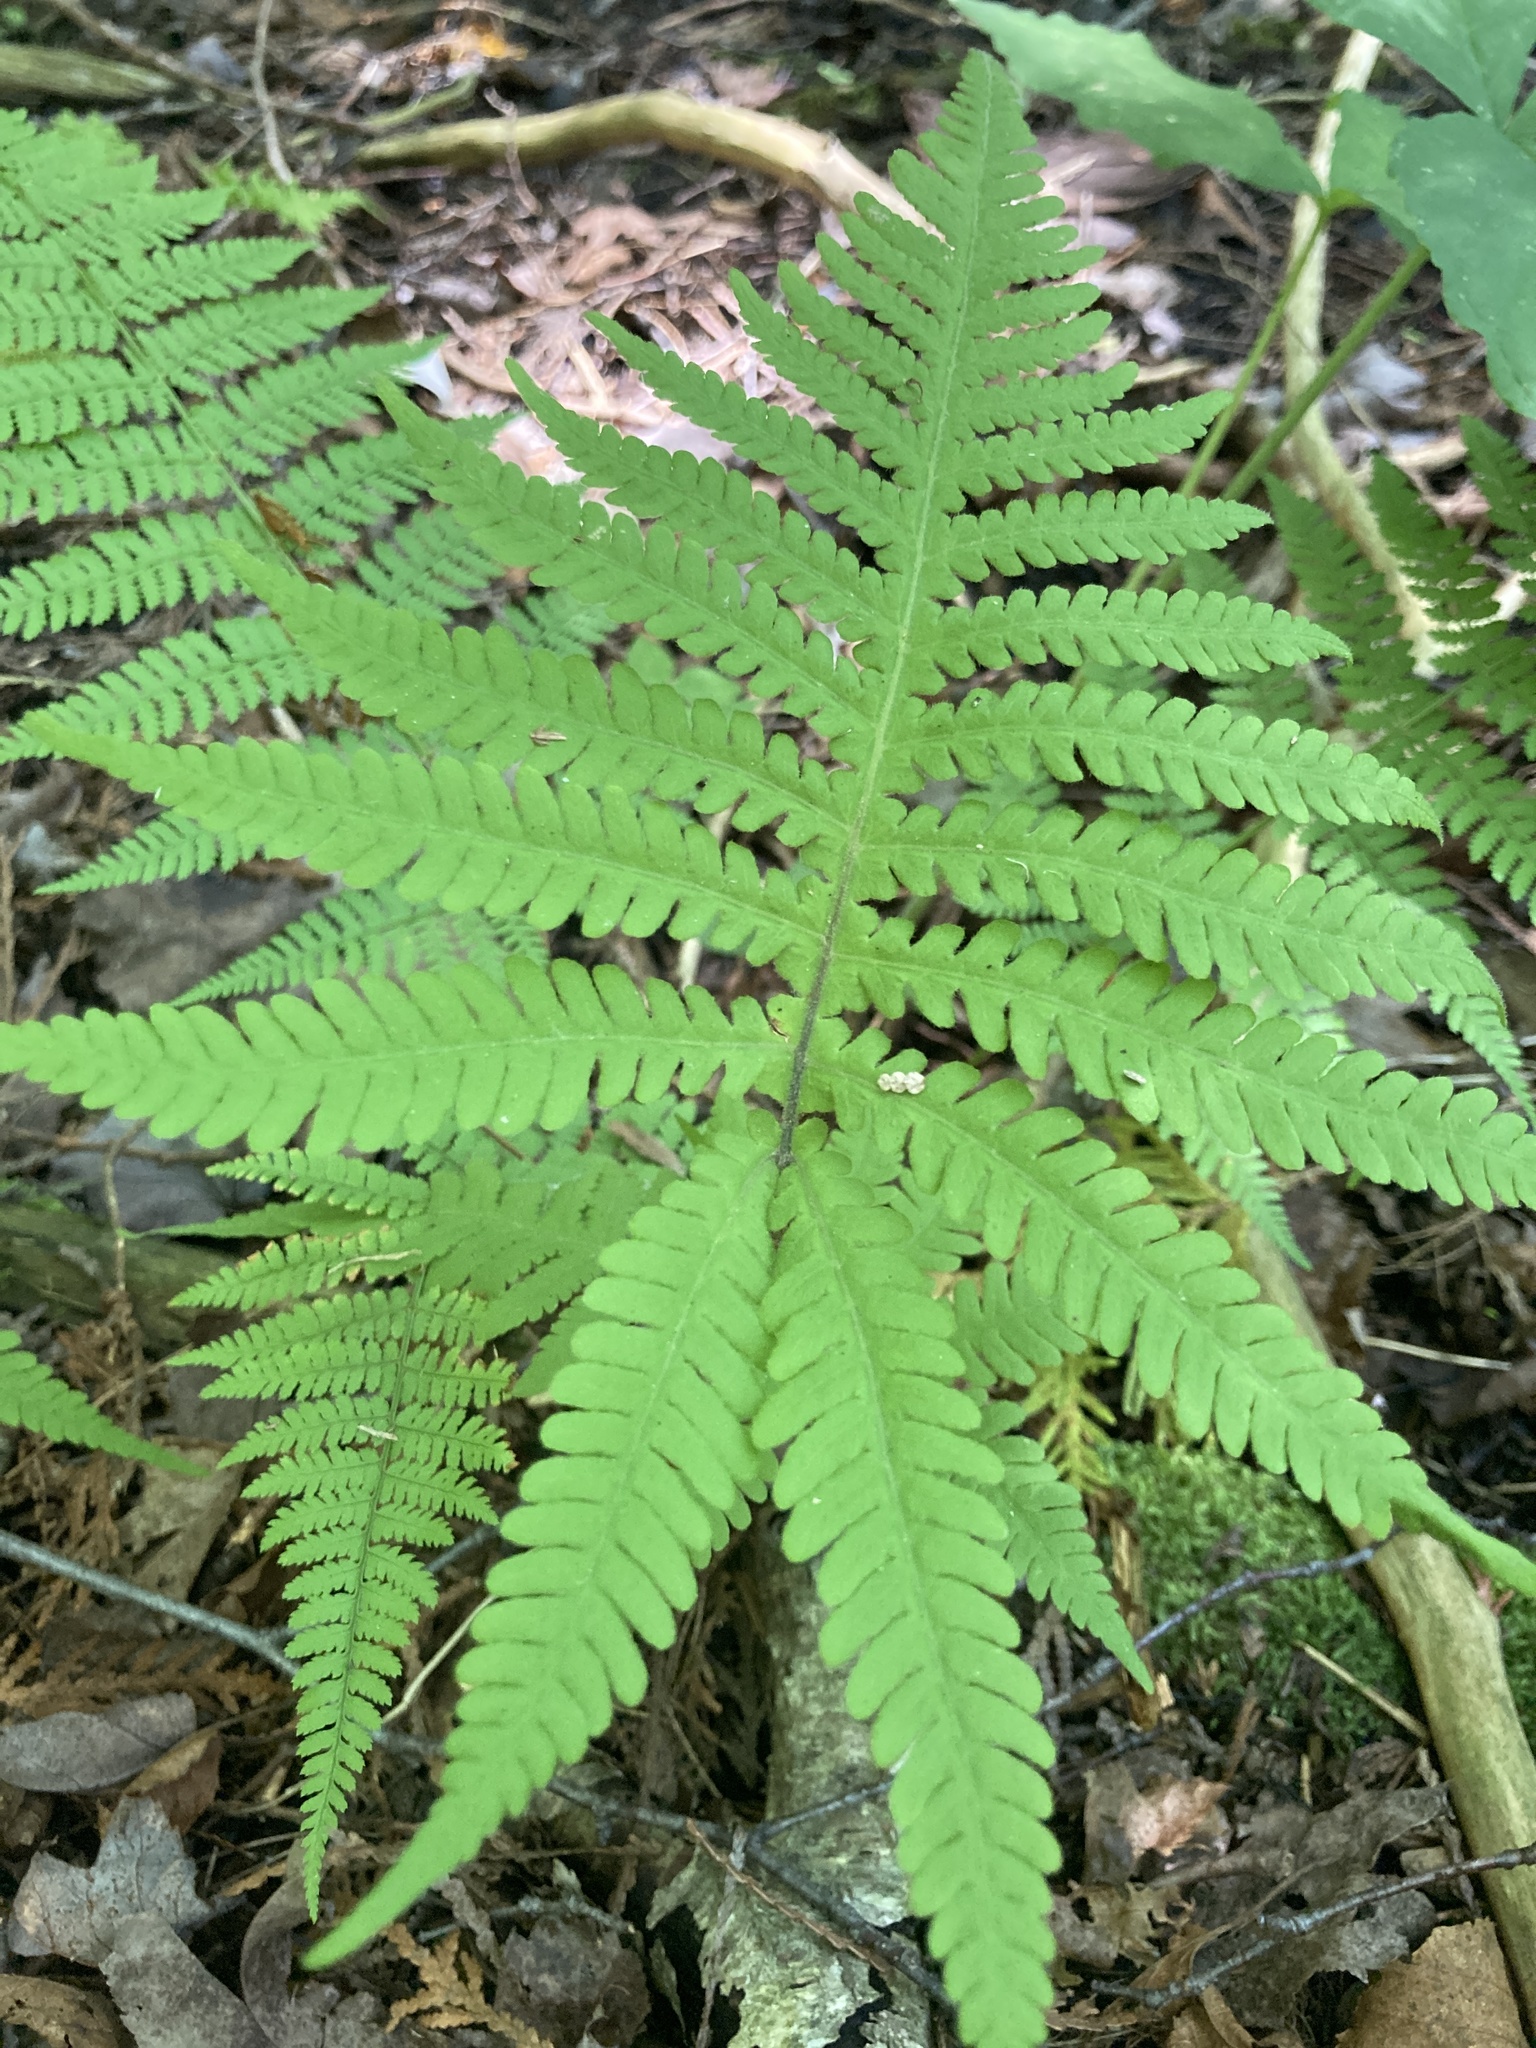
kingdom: Plantae
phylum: Tracheophyta
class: Polypodiopsida
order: Polypodiales
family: Thelypteridaceae
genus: Phegopteris
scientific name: Phegopteris connectilis
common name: Beech fern
